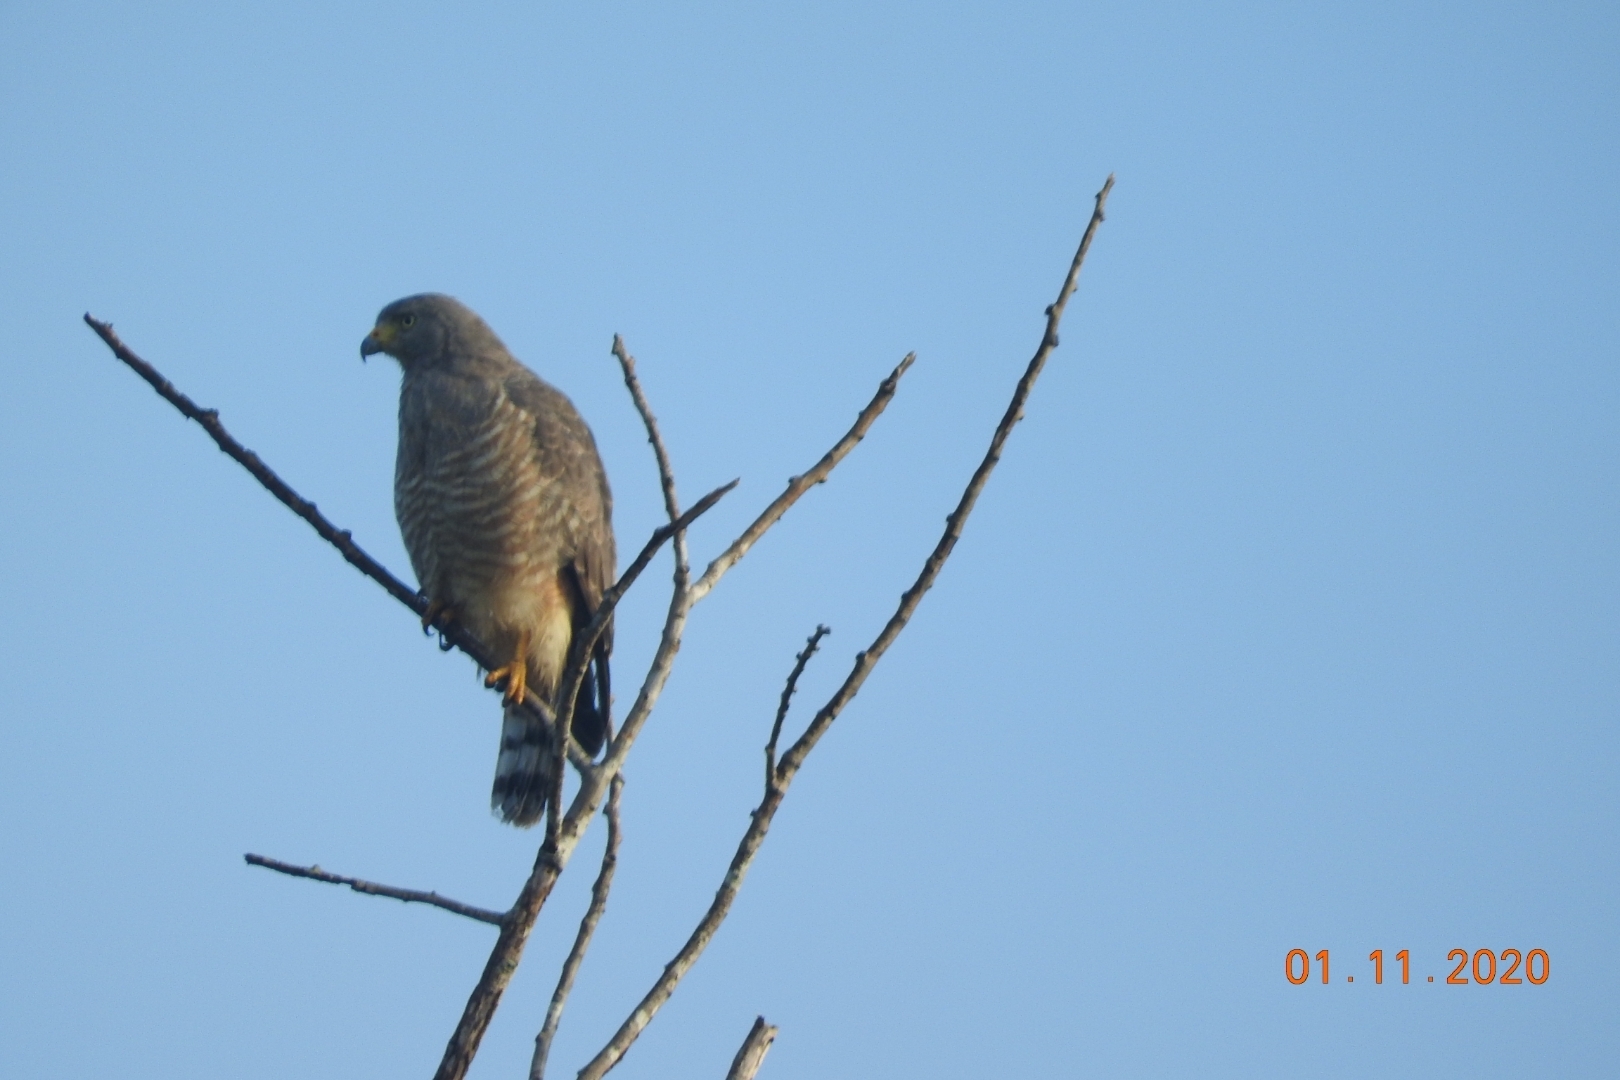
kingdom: Animalia
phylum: Chordata
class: Aves
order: Accipitriformes
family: Accipitridae
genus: Rupornis
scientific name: Rupornis magnirostris
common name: Roadside hawk
